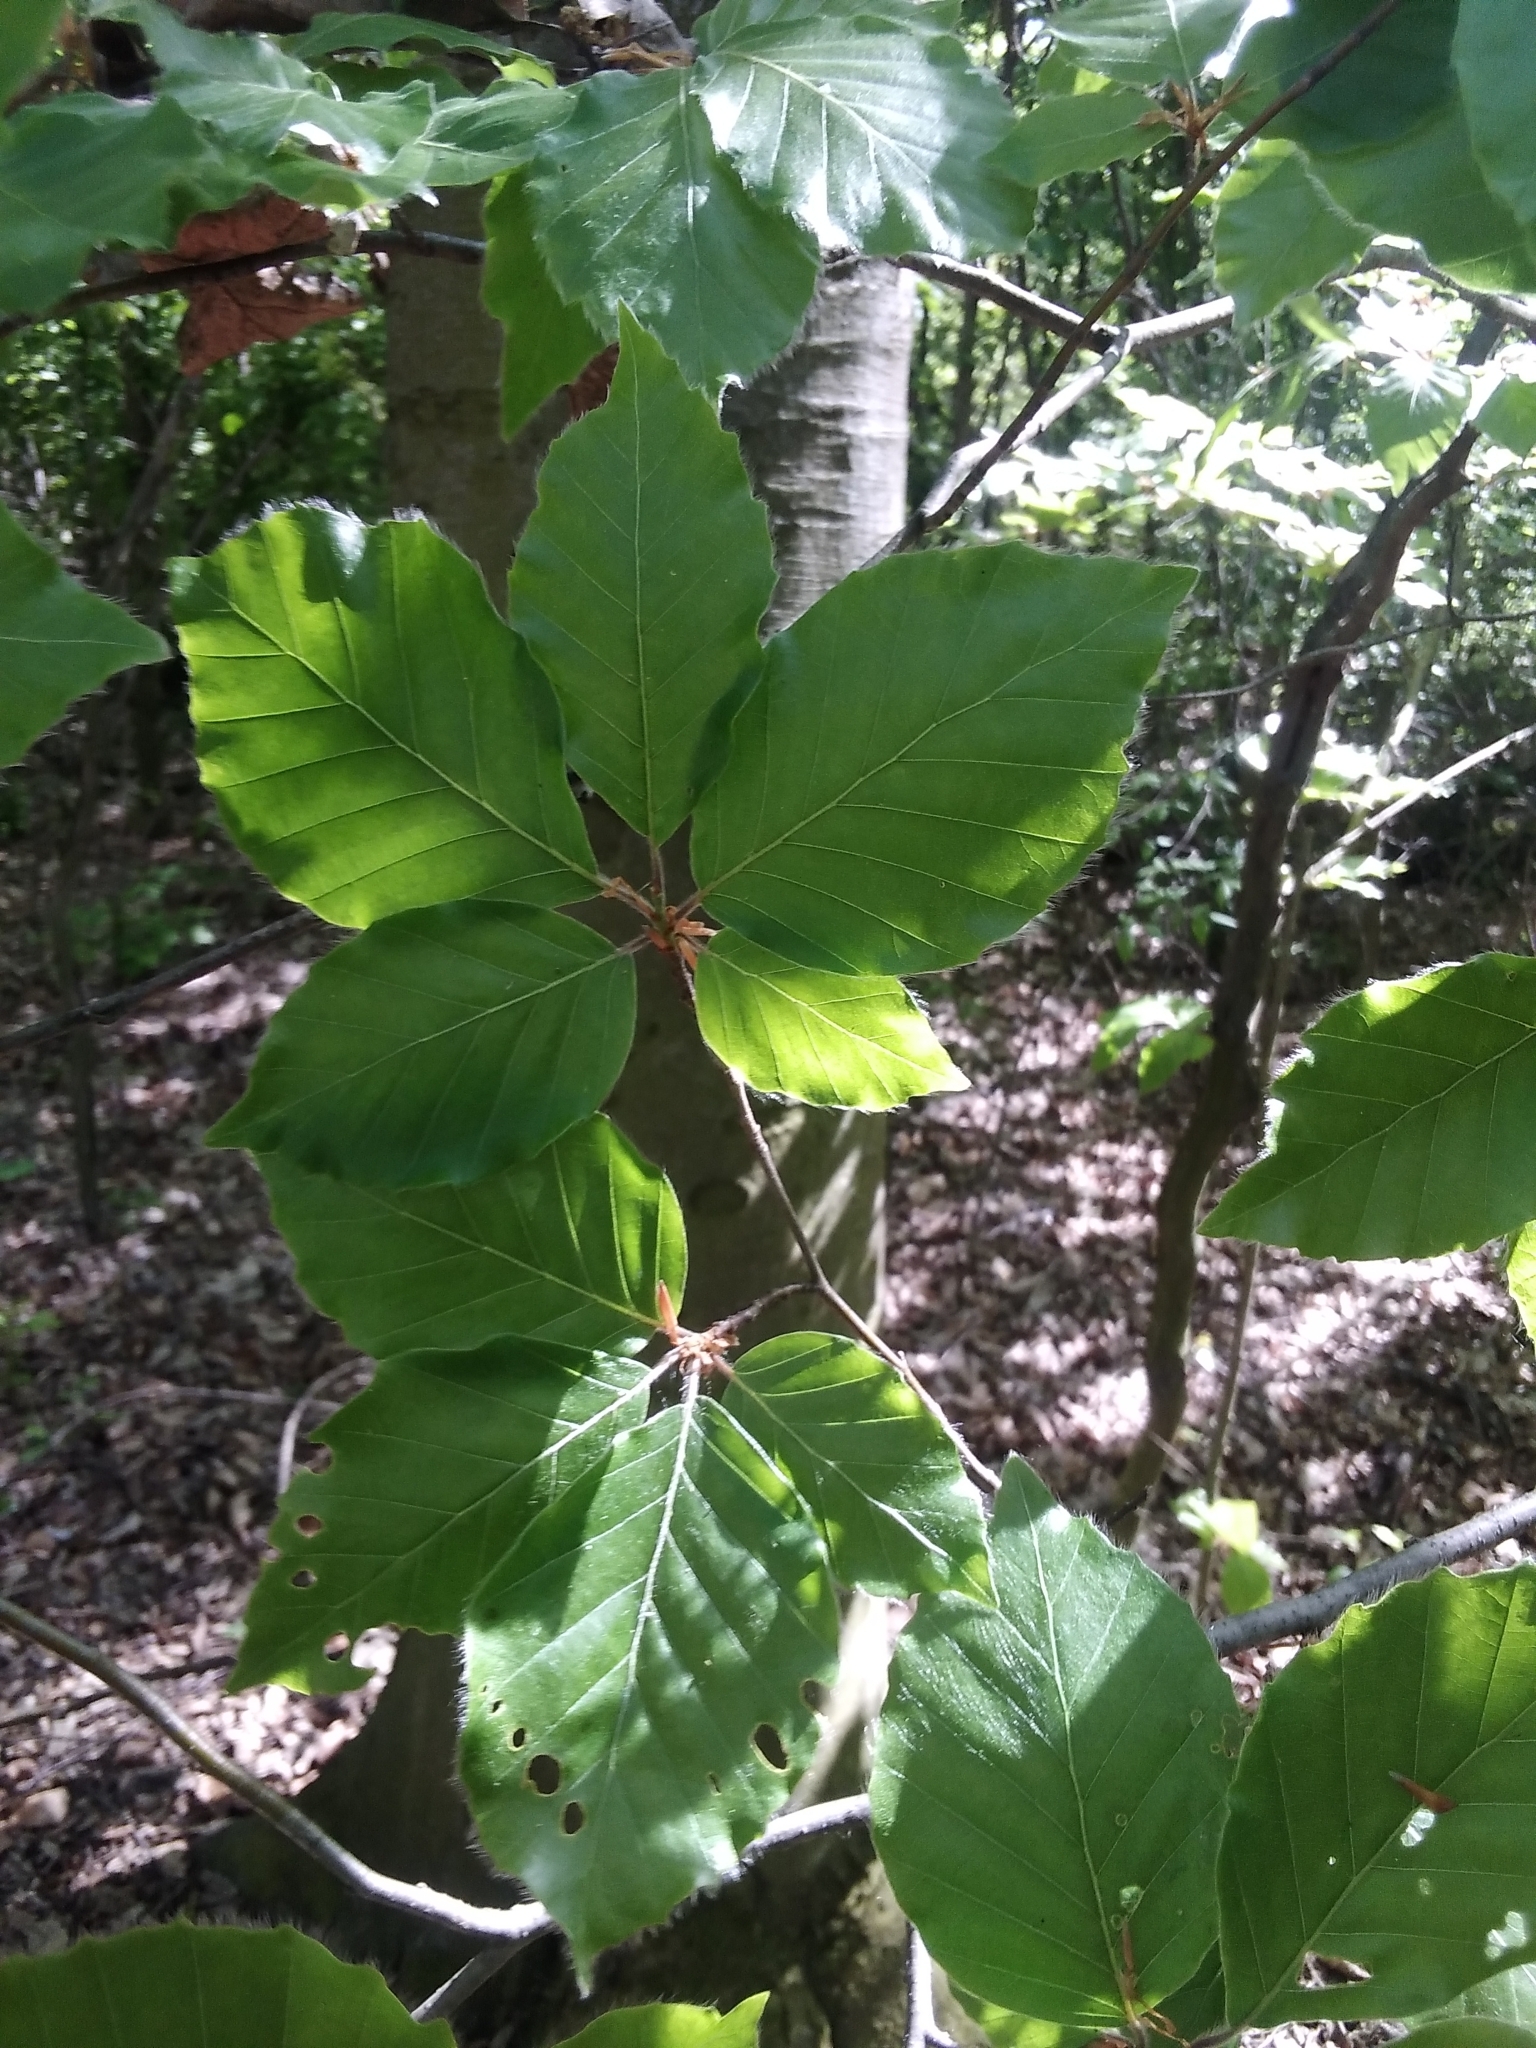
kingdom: Plantae
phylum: Tracheophyta
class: Magnoliopsida
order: Fagales
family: Fagaceae
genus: Fagus
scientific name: Fagus sylvatica
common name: Beech
